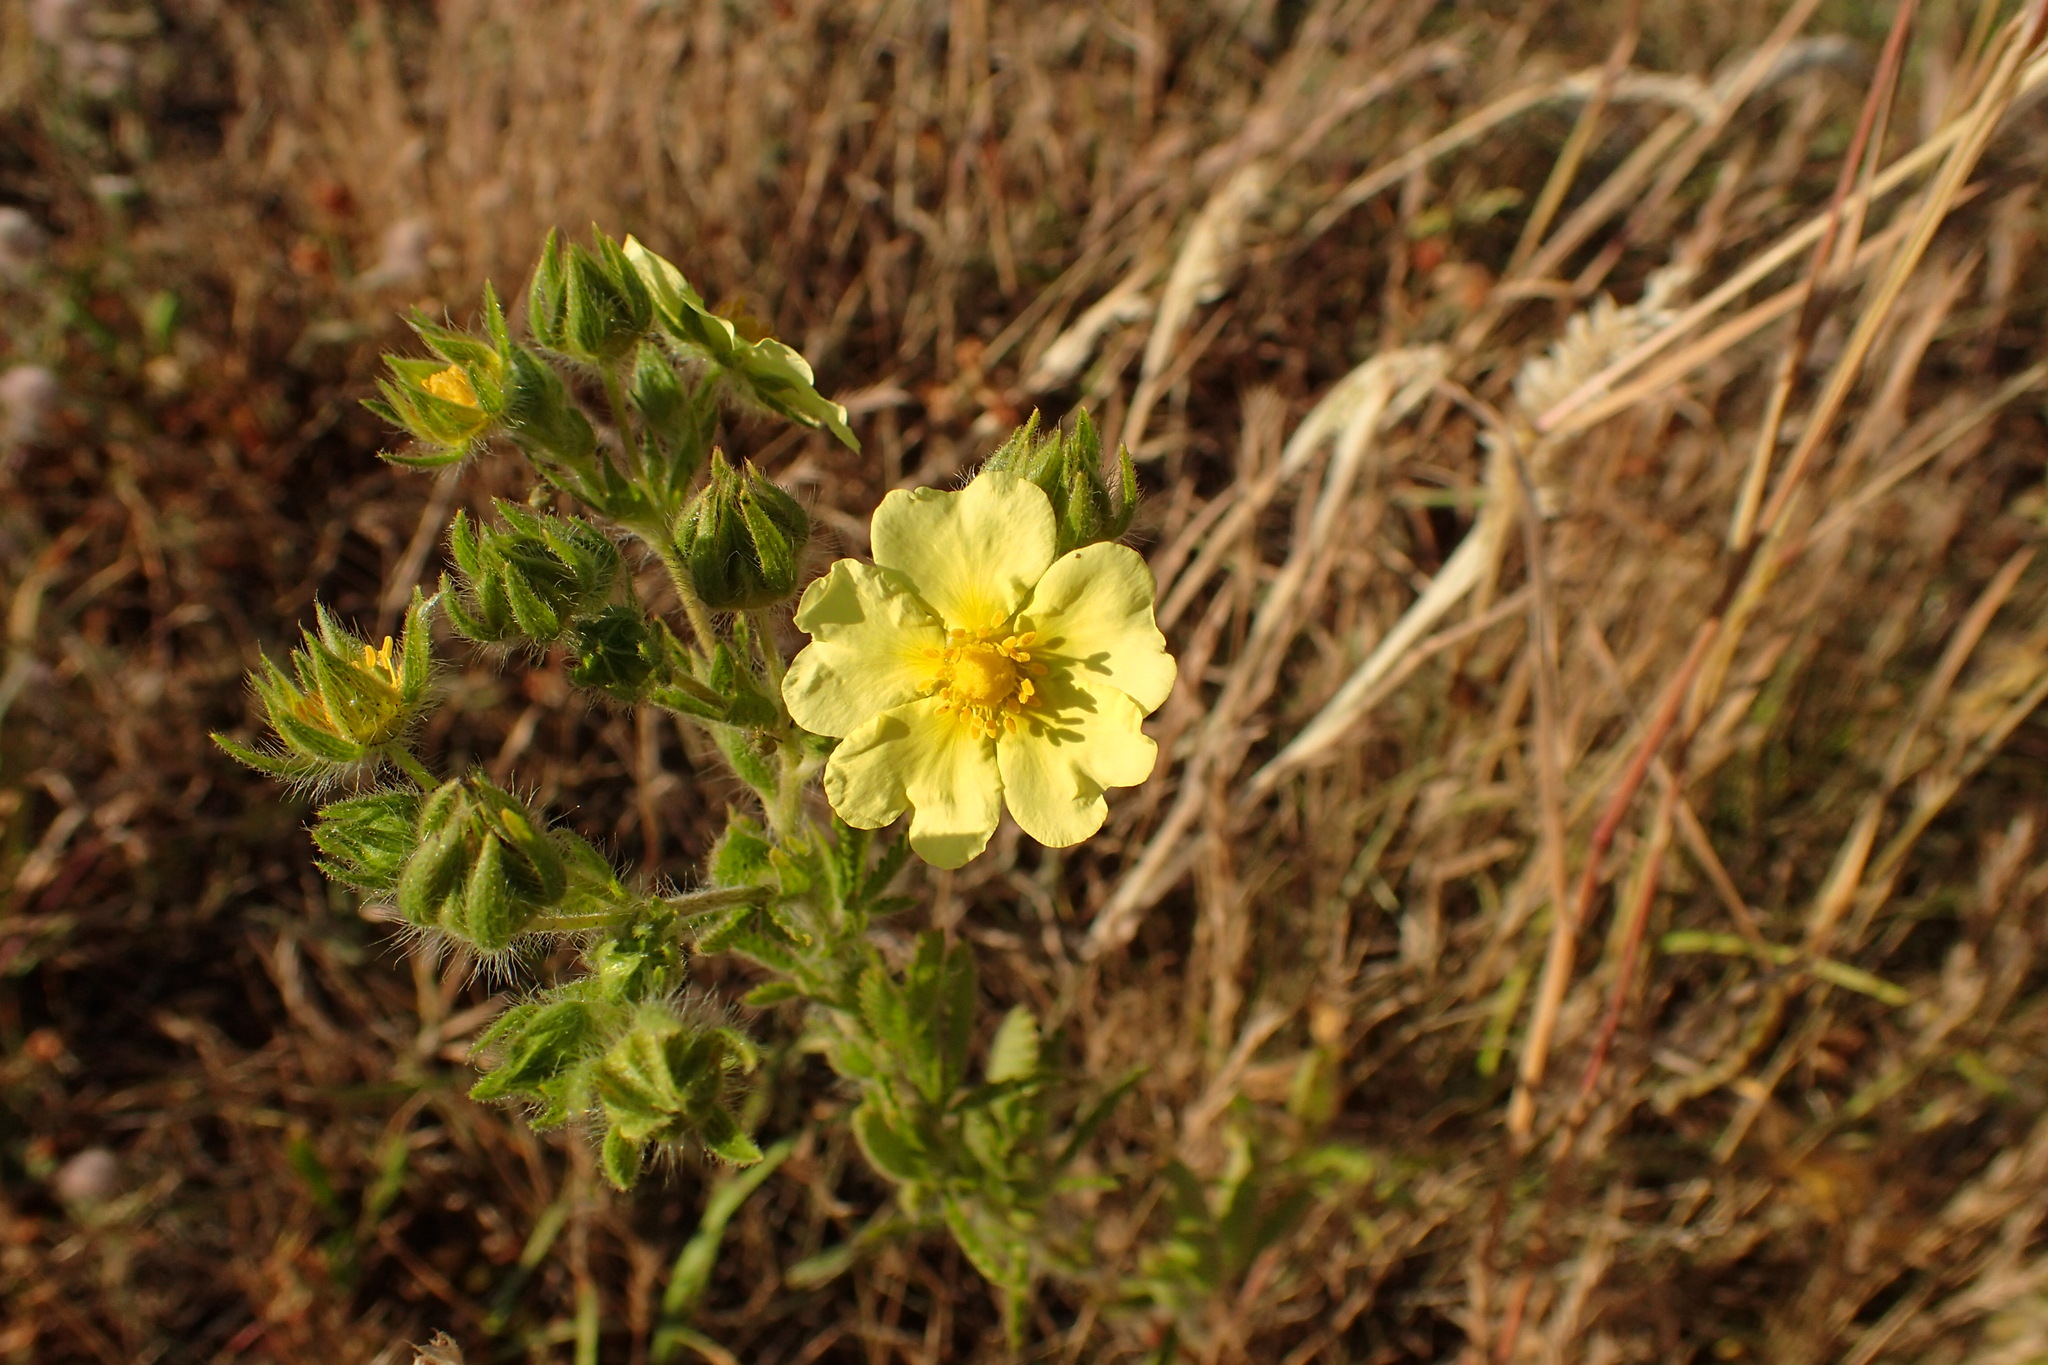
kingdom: Plantae
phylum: Tracheophyta
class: Magnoliopsida
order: Rosales
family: Rosaceae
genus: Potentilla
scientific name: Potentilla recta
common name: Sulphur cinquefoil
